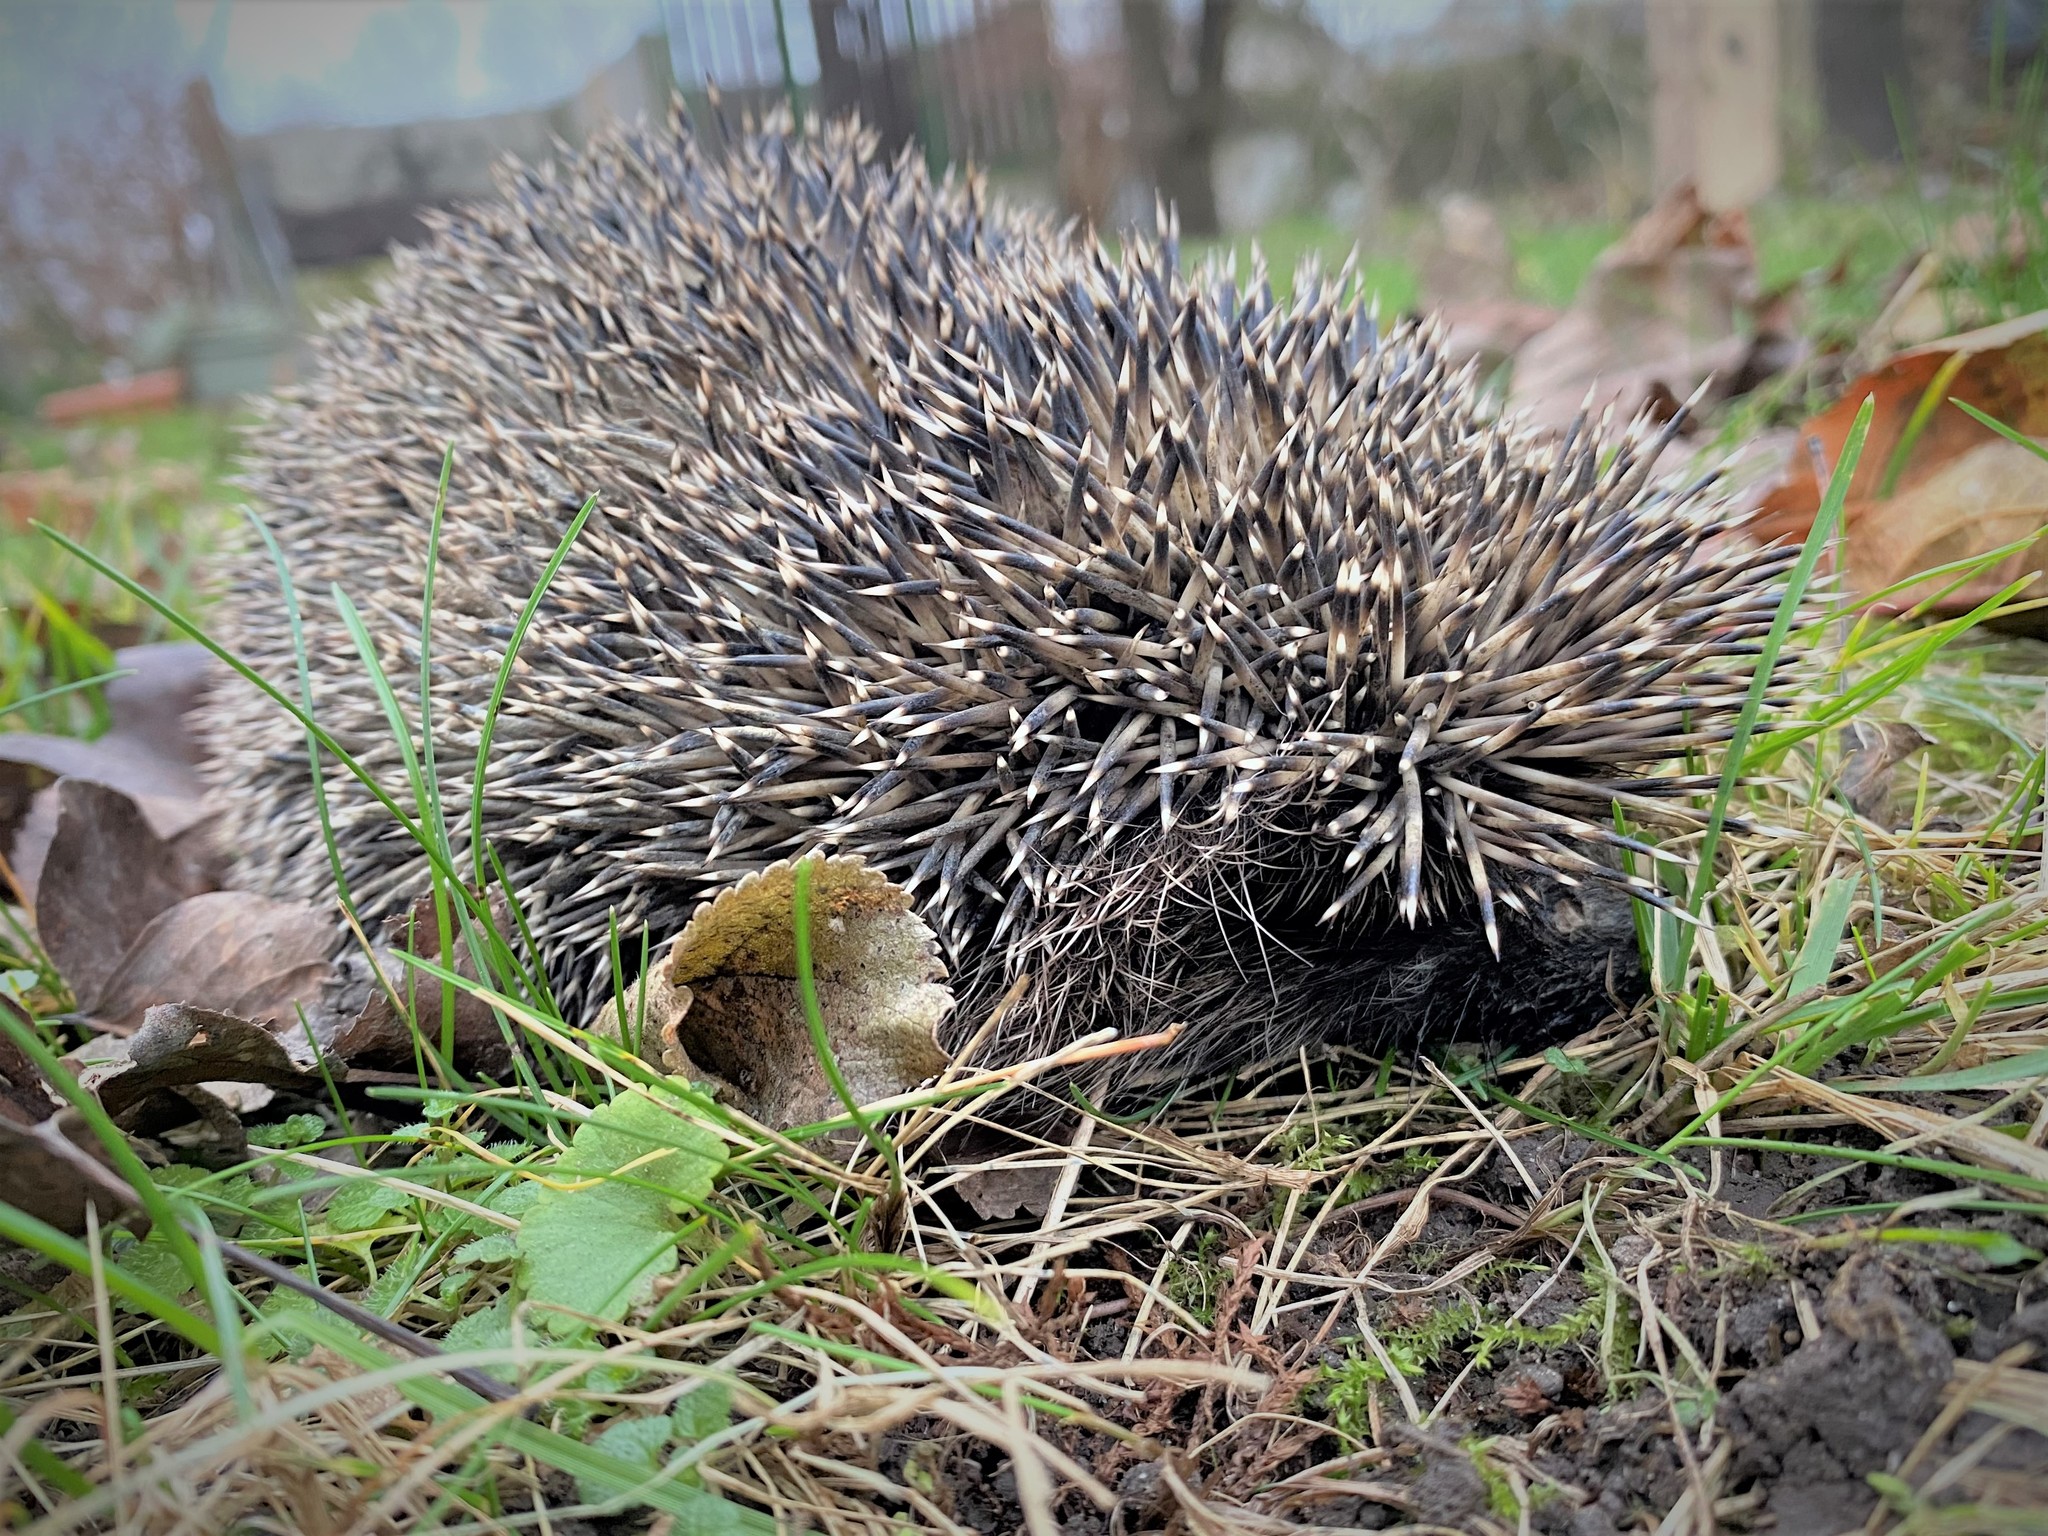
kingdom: Animalia
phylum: Chordata
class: Mammalia
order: Erinaceomorpha
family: Erinaceidae
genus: Erinaceus
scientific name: Erinaceus roumanicus
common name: Northern white-breasted hedgehog
